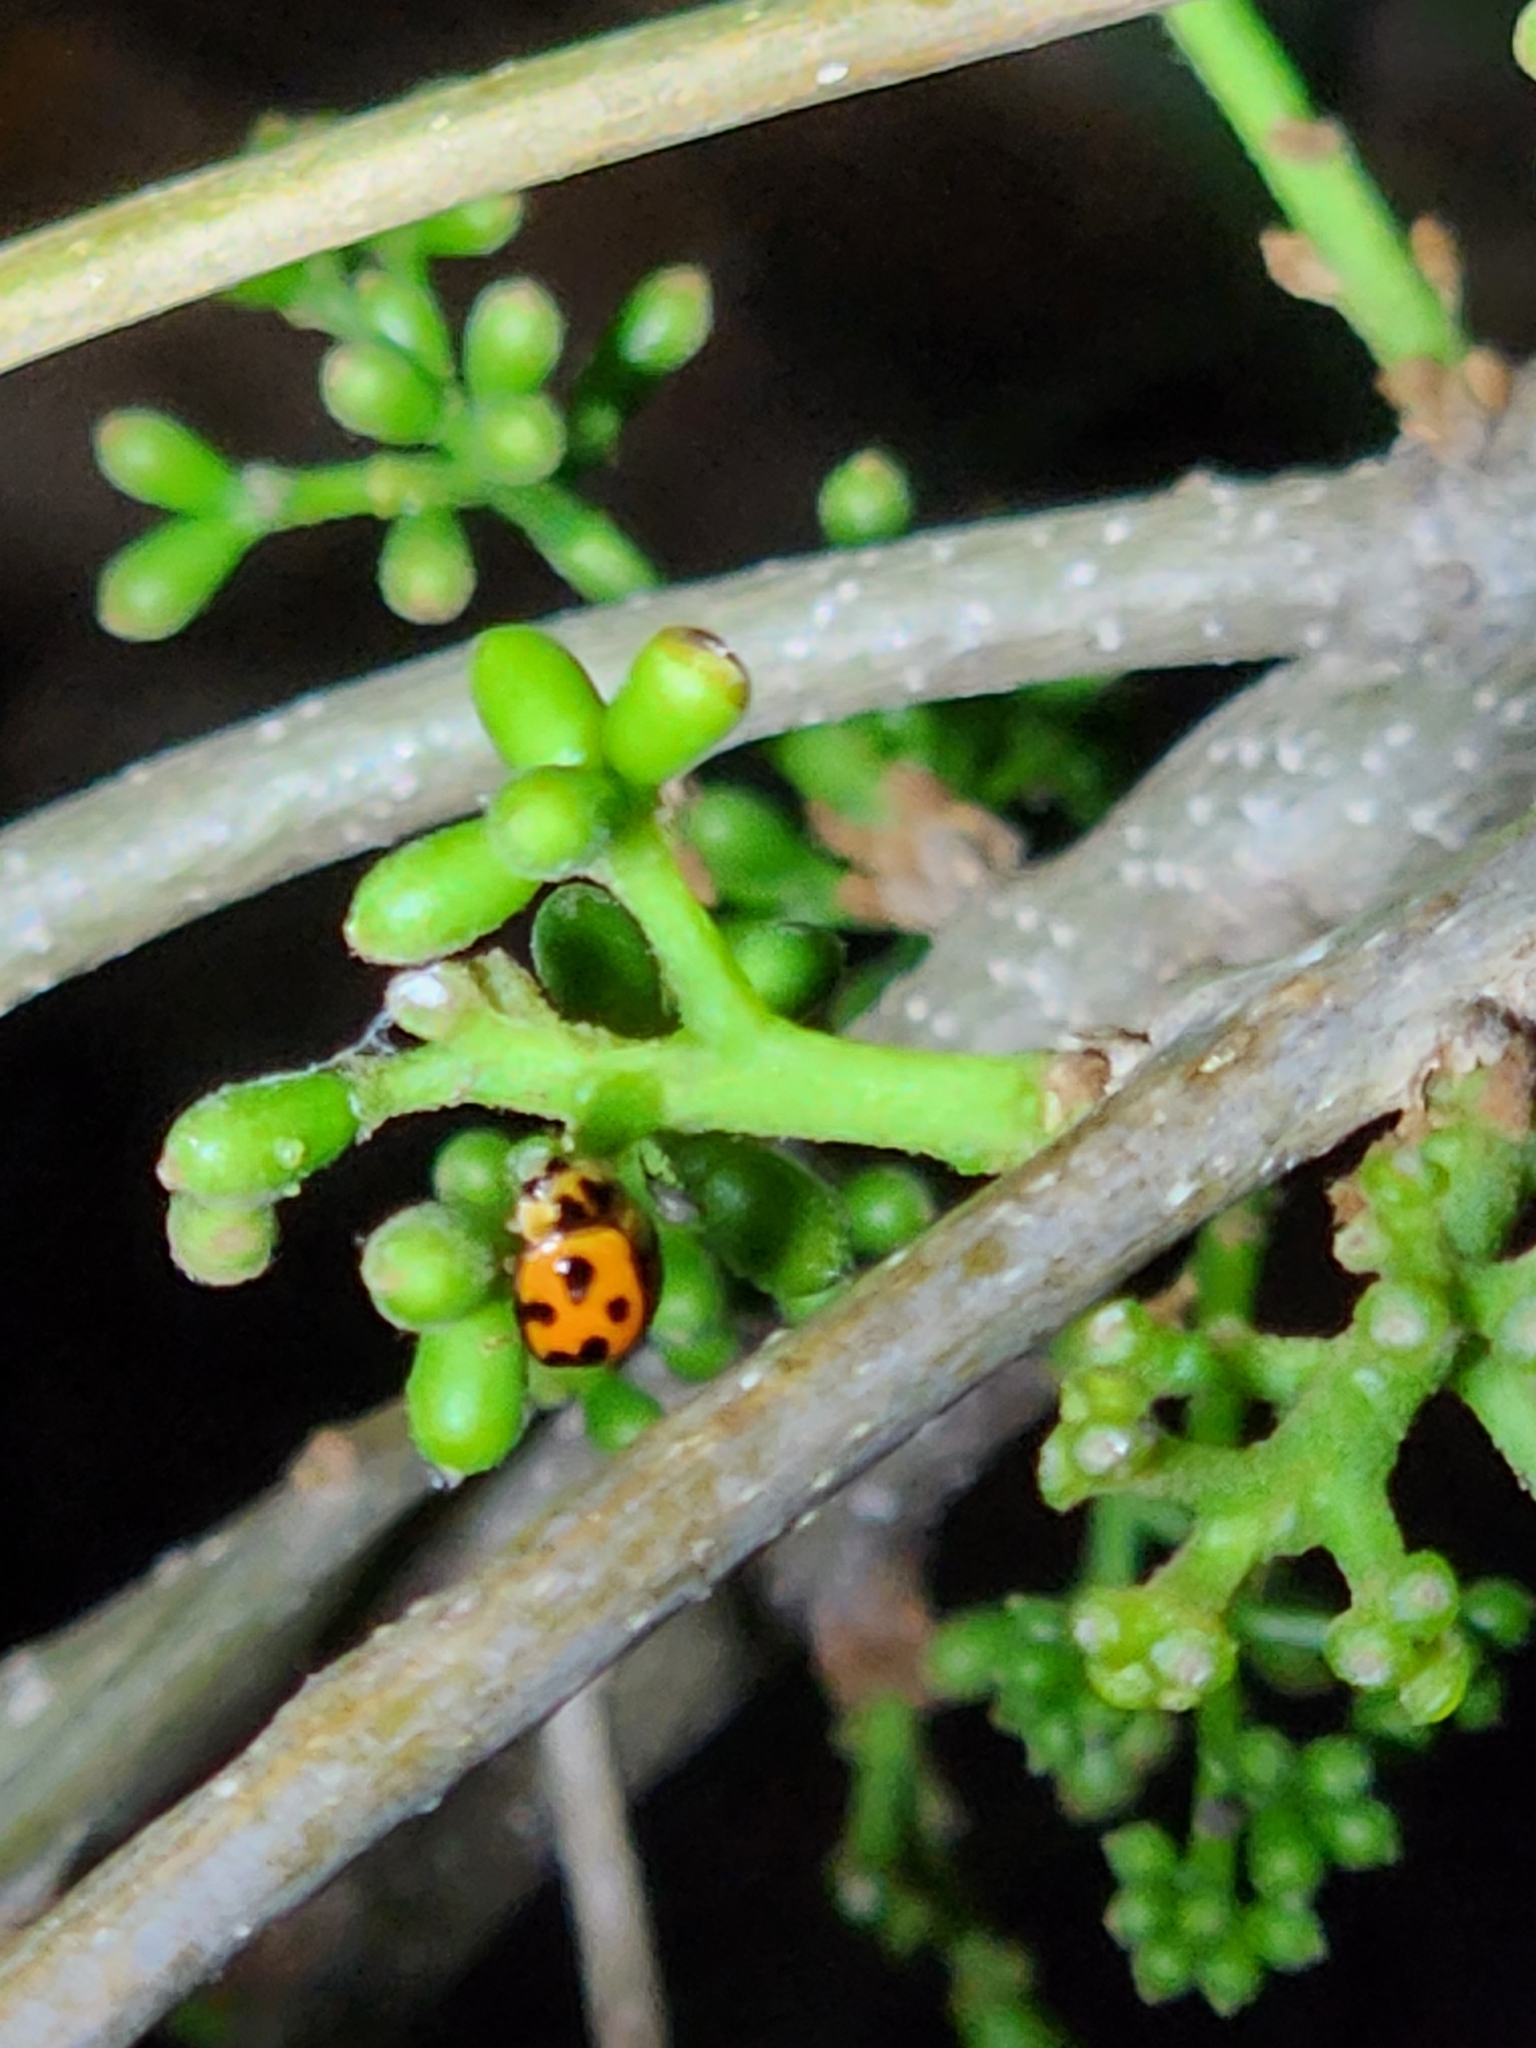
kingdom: Animalia
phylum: Arthropoda
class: Insecta
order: Coleoptera
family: Coccinellidae
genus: Coelophora
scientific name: Coelophora inaequalis
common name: Common australian lady beetle
